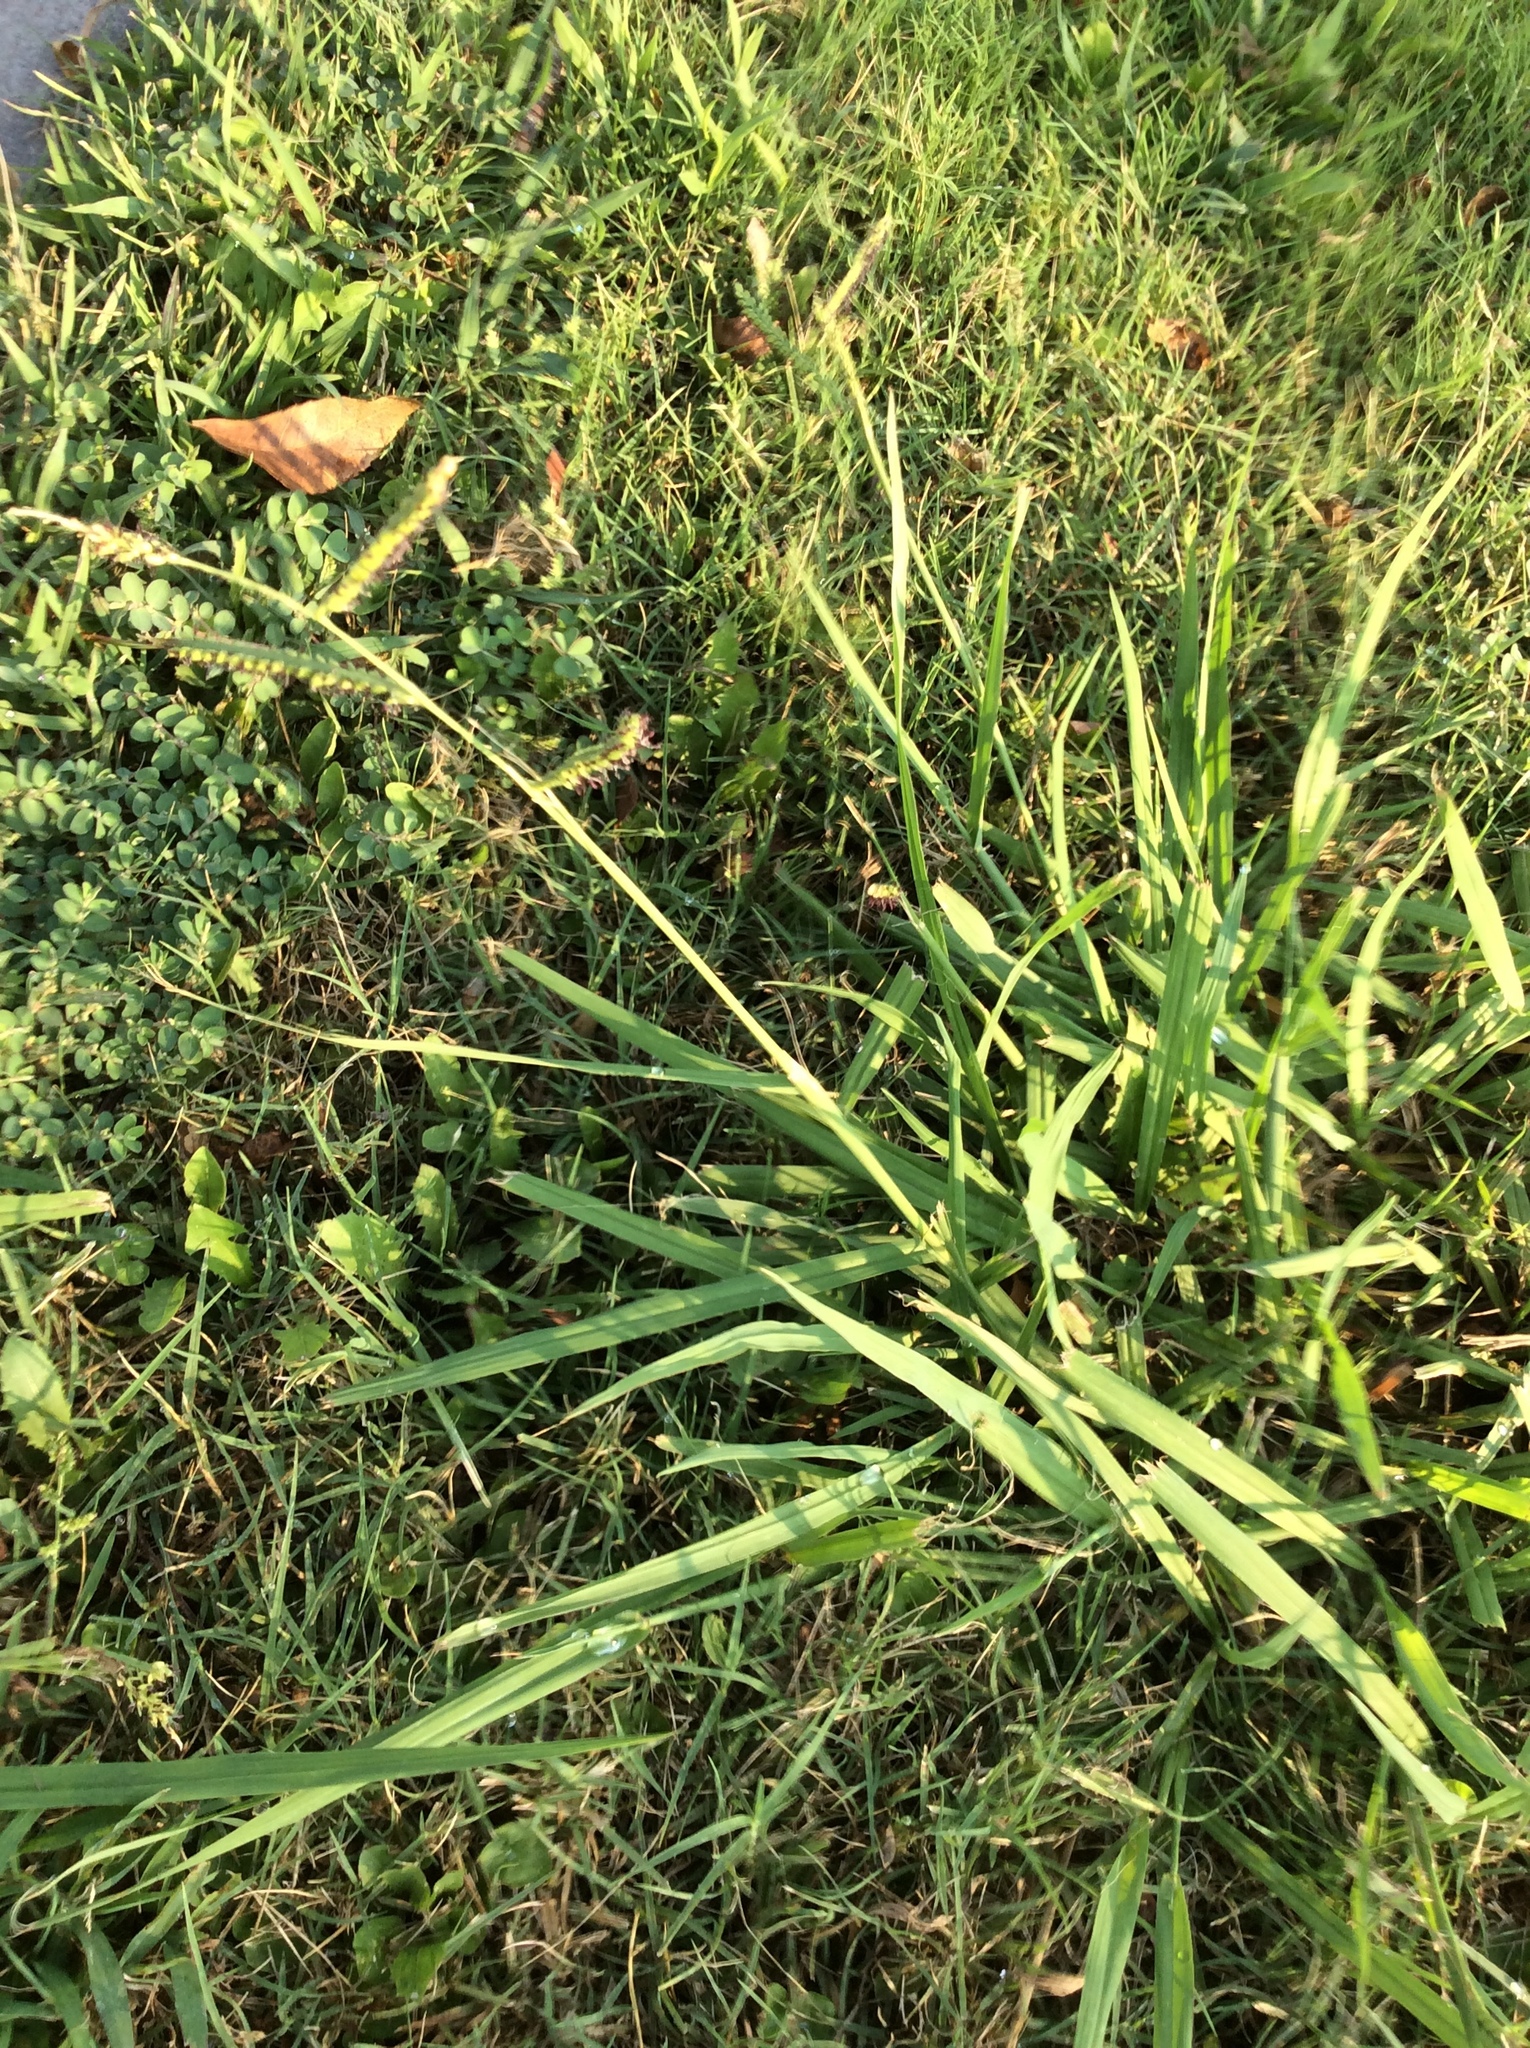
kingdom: Plantae
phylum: Tracheophyta
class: Liliopsida
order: Poales
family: Poaceae
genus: Paspalum
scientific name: Paspalum dilatatum
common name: Dallisgrass
